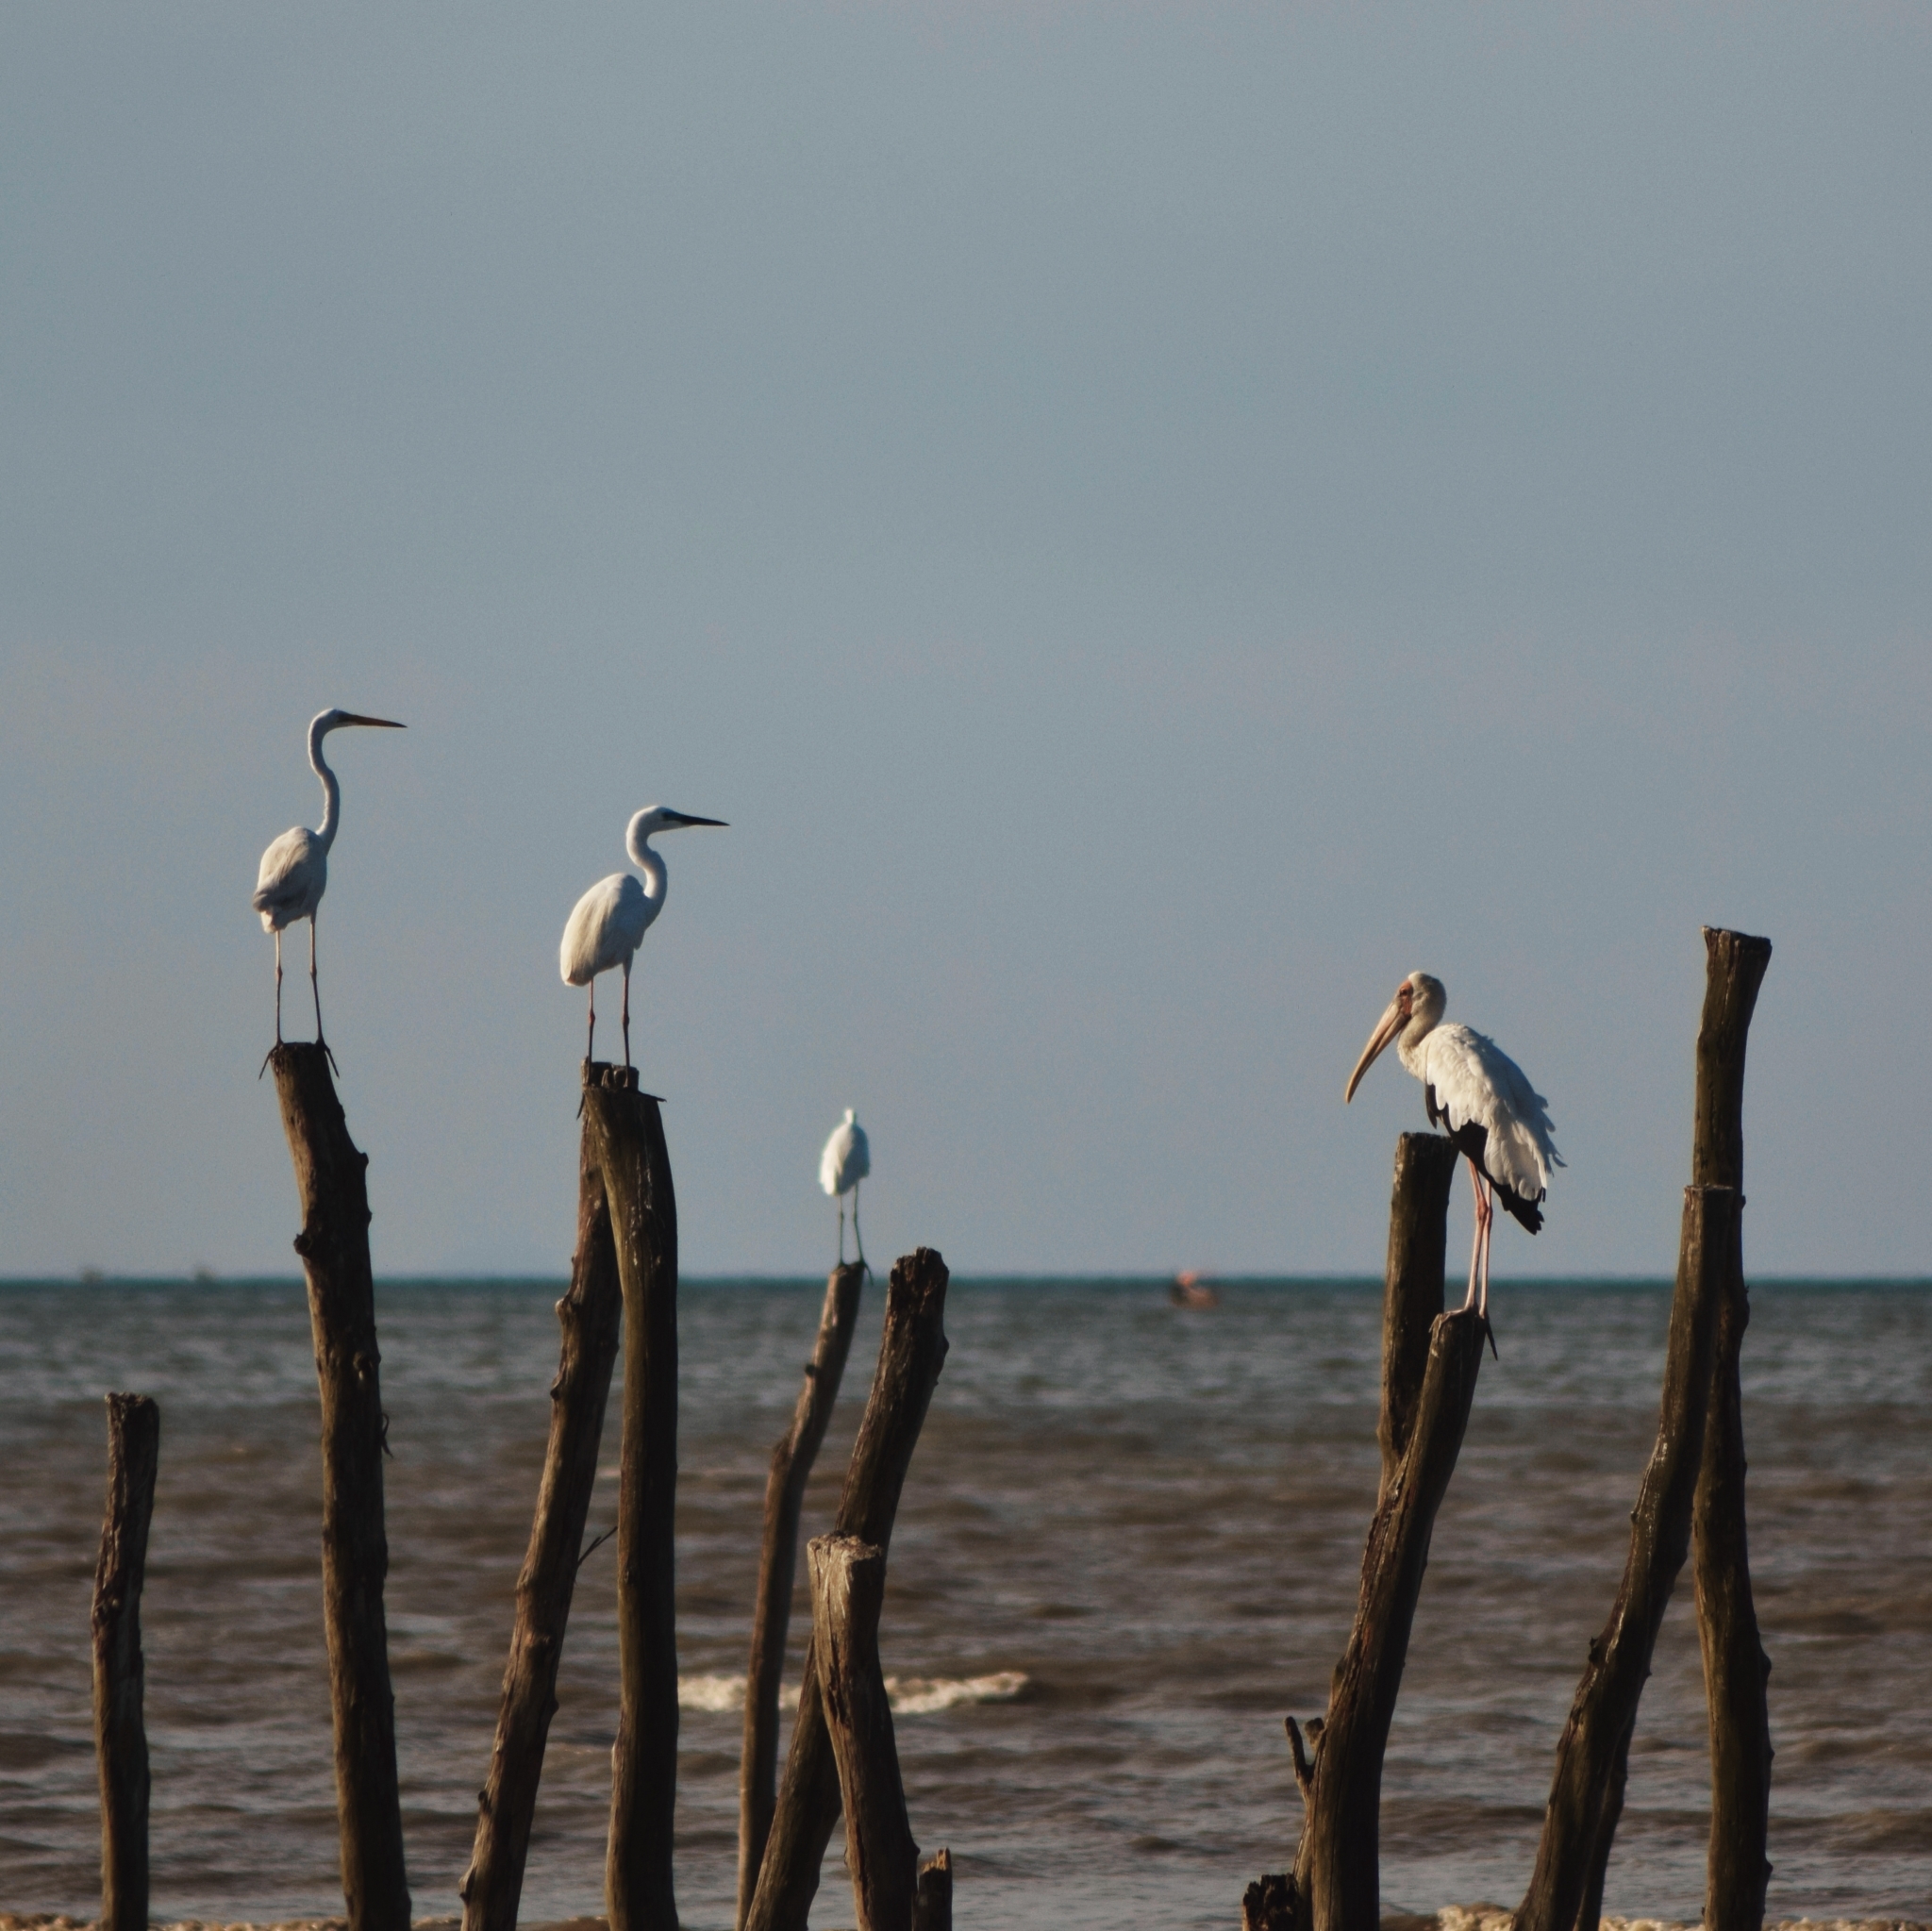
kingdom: Animalia
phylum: Chordata
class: Aves
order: Ciconiiformes
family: Ciconiidae
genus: Mycteria
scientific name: Mycteria cinerea
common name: Milky stork
